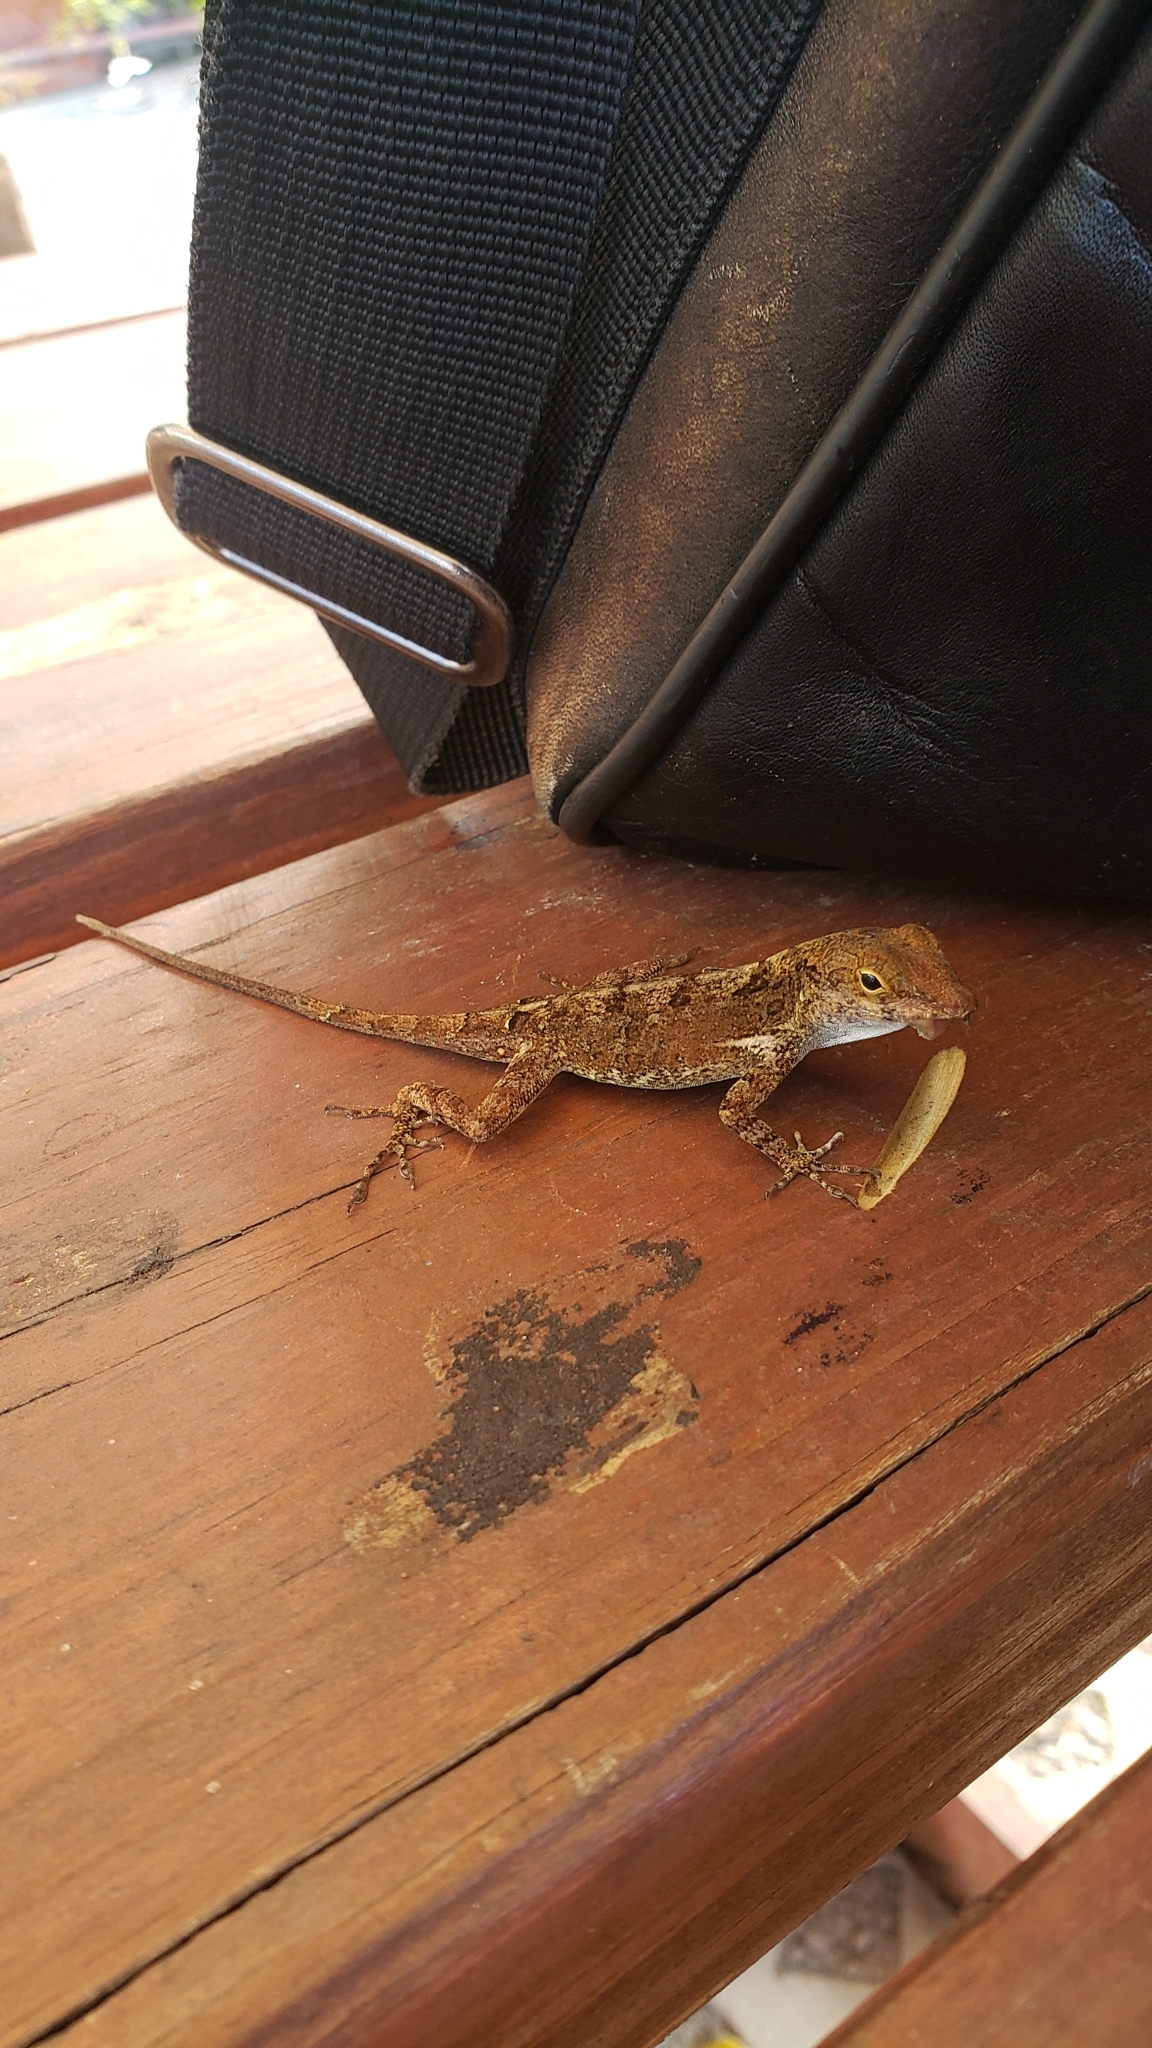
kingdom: Animalia
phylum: Chordata
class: Squamata
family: Dactyloidae
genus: Anolis
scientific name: Anolis cristatellus
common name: Crested anole
